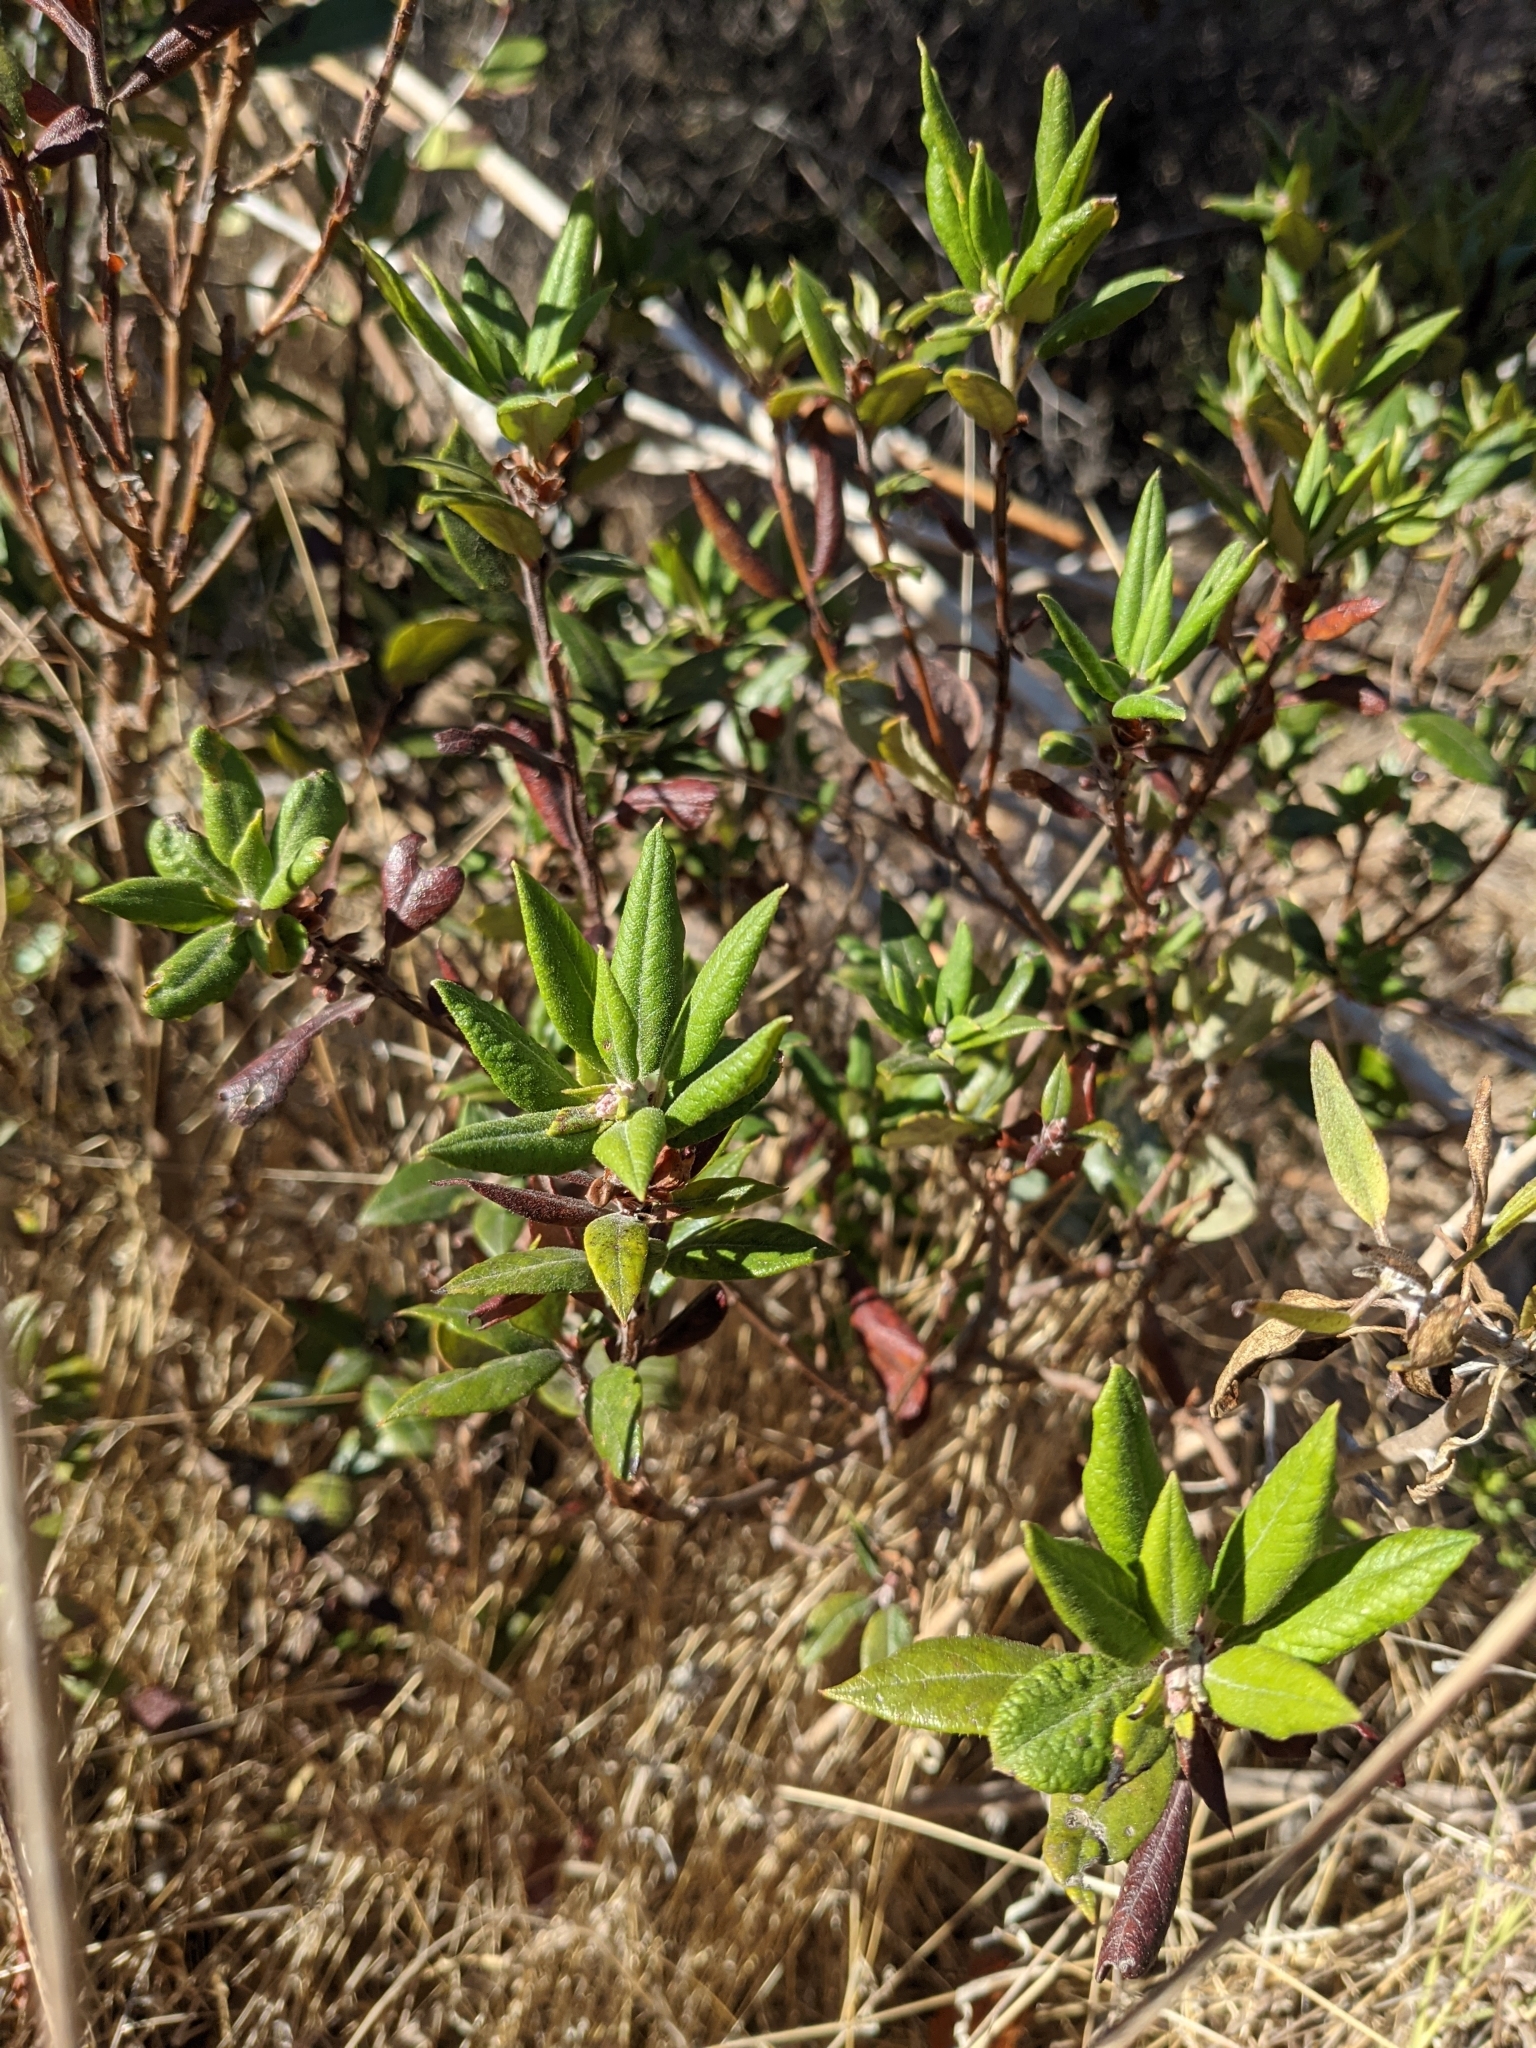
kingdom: Plantae
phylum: Tracheophyta
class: Magnoliopsida
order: Ericales
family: Ericaceae
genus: Arctostaphylos
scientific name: Arctostaphylos bicolor
